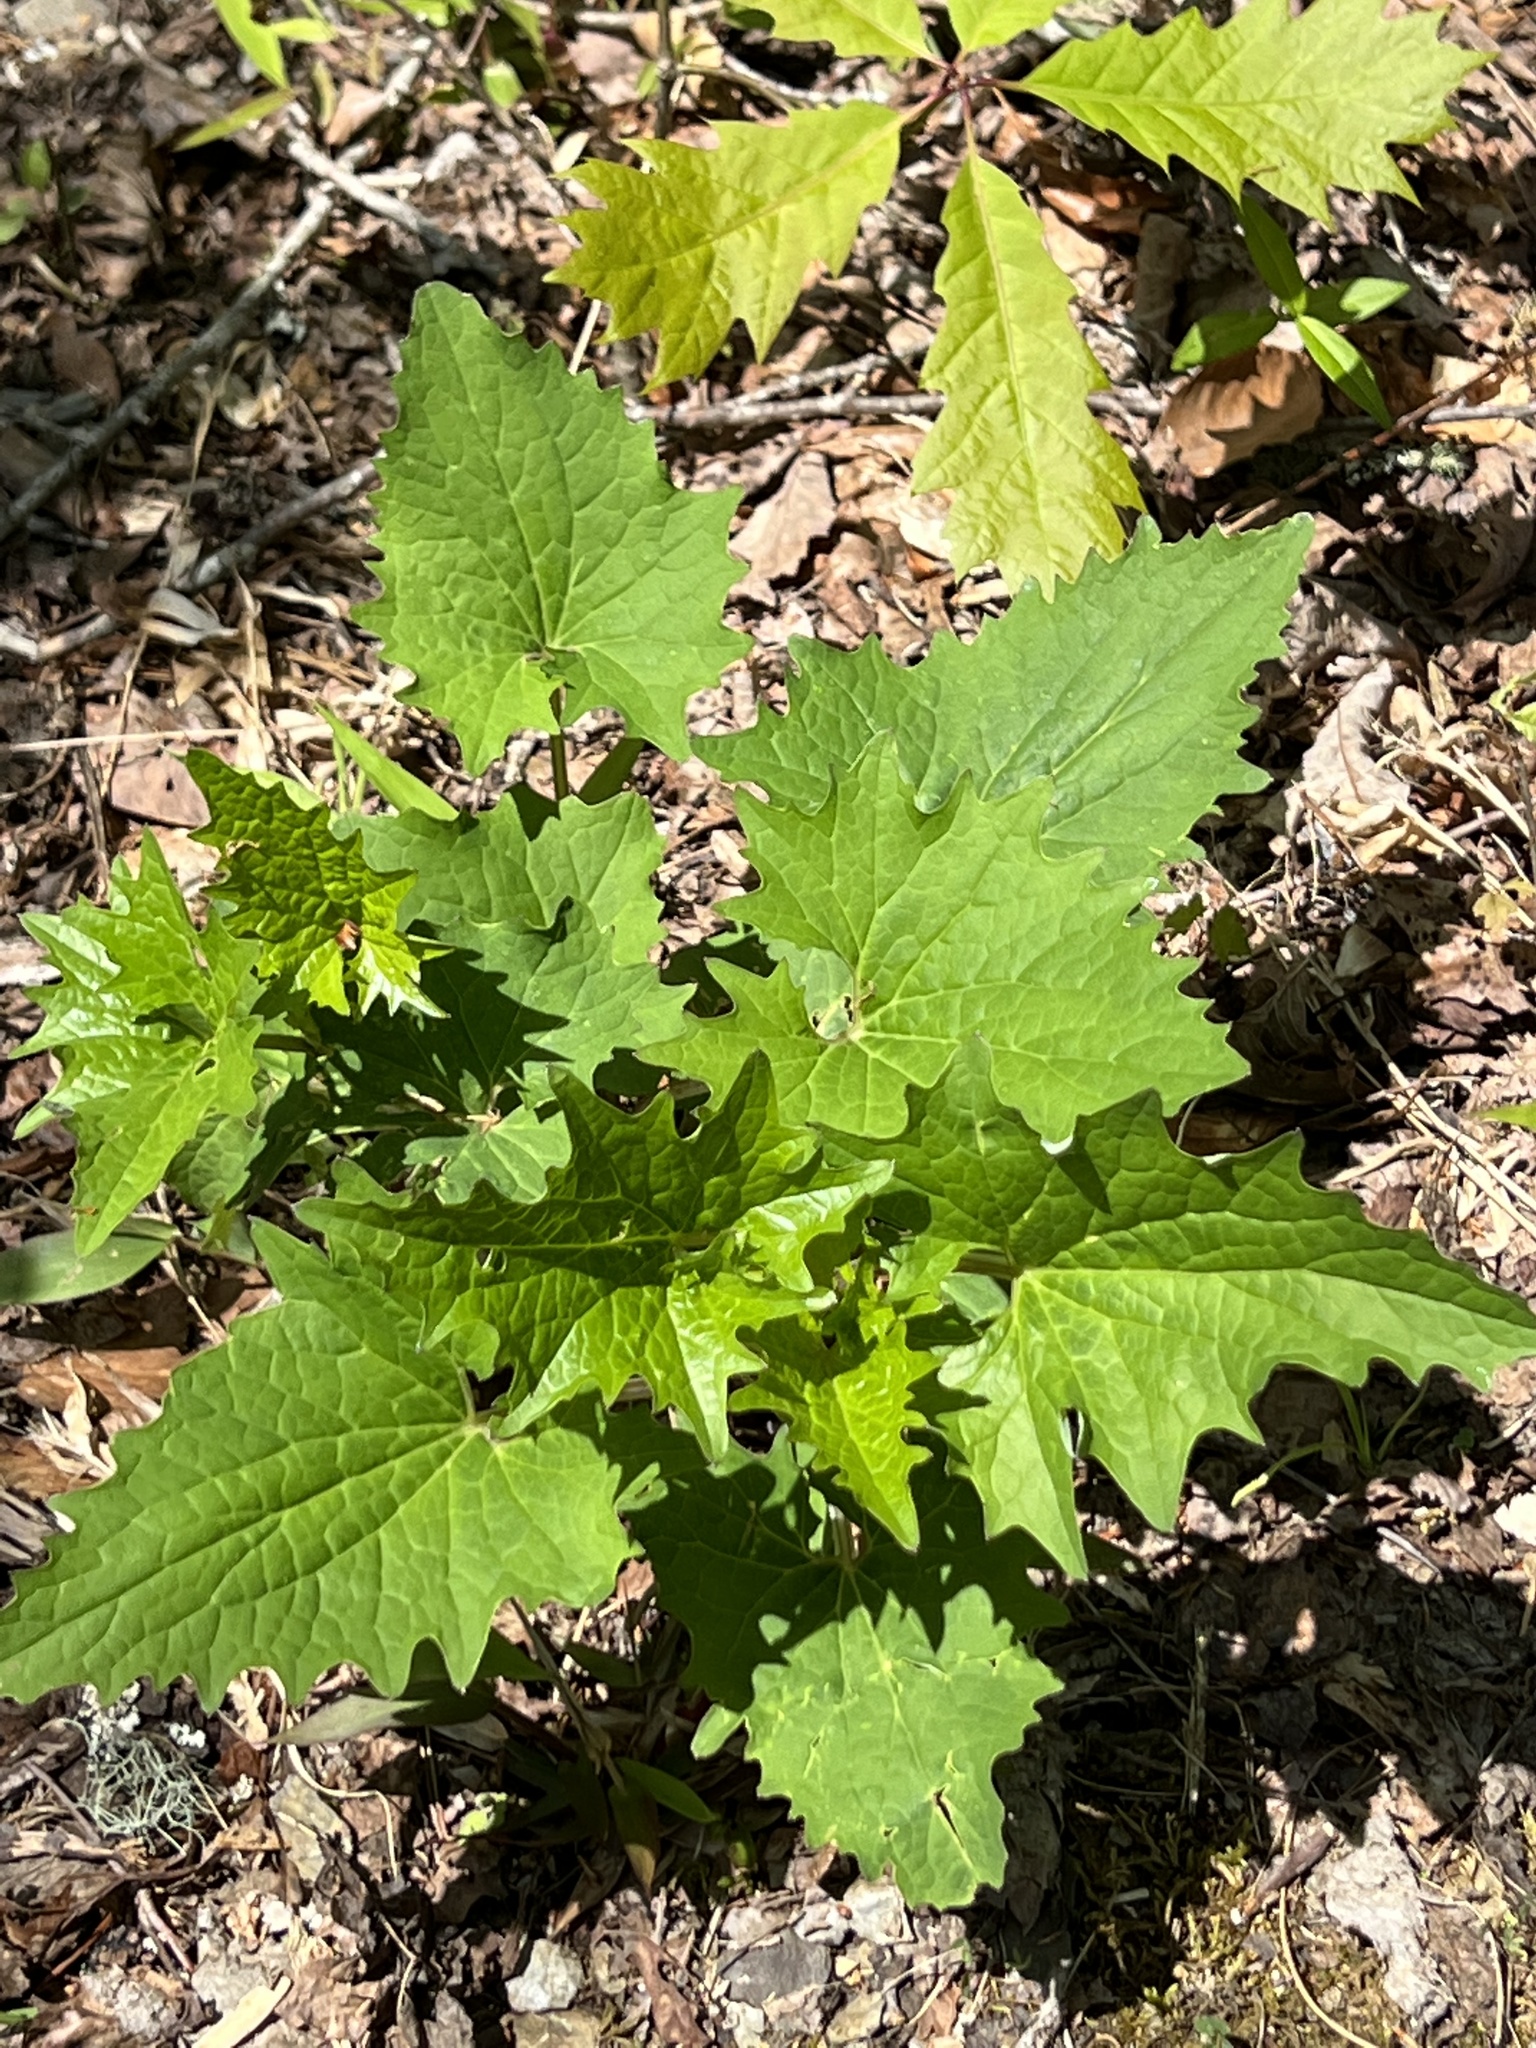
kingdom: Plantae
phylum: Tracheophyta
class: Magnoliopsida
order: Asterales
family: Asteraceae
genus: Arnoglossum
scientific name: Arnoglossum atriplicifolium
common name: Pale indian-plantain
